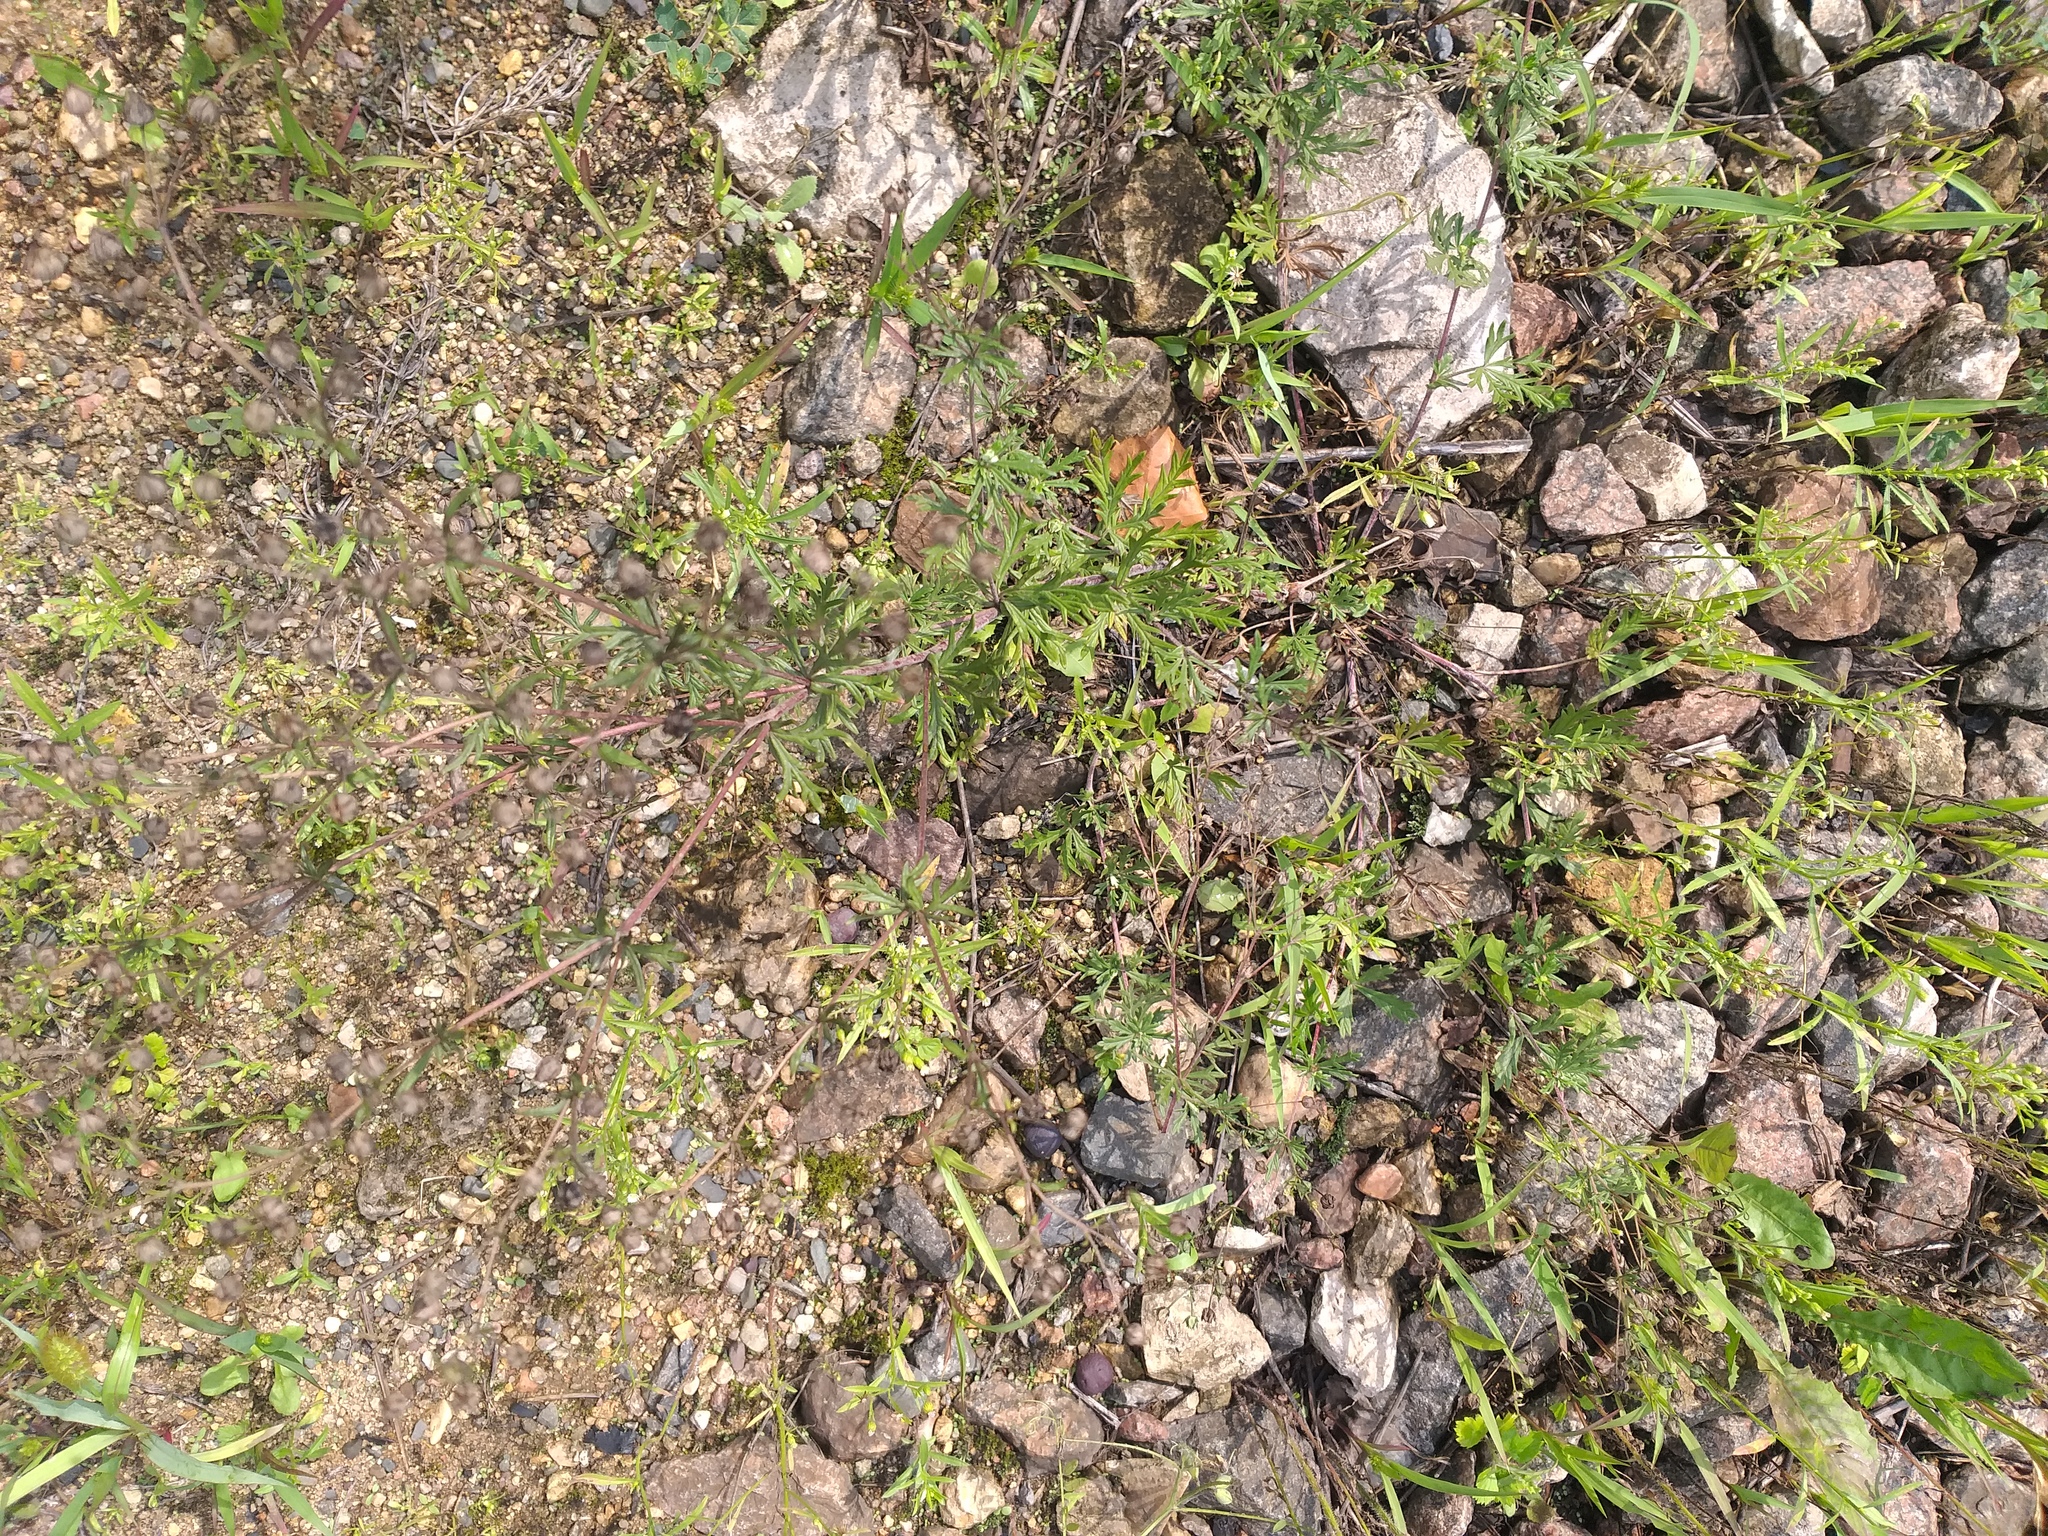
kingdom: Plantae
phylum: Tracheophyta
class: Magnoliopsida
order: Rosales
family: Rosaceae
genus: Potentilla
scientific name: Potentilla argentea
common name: Hoary cinquefoil
